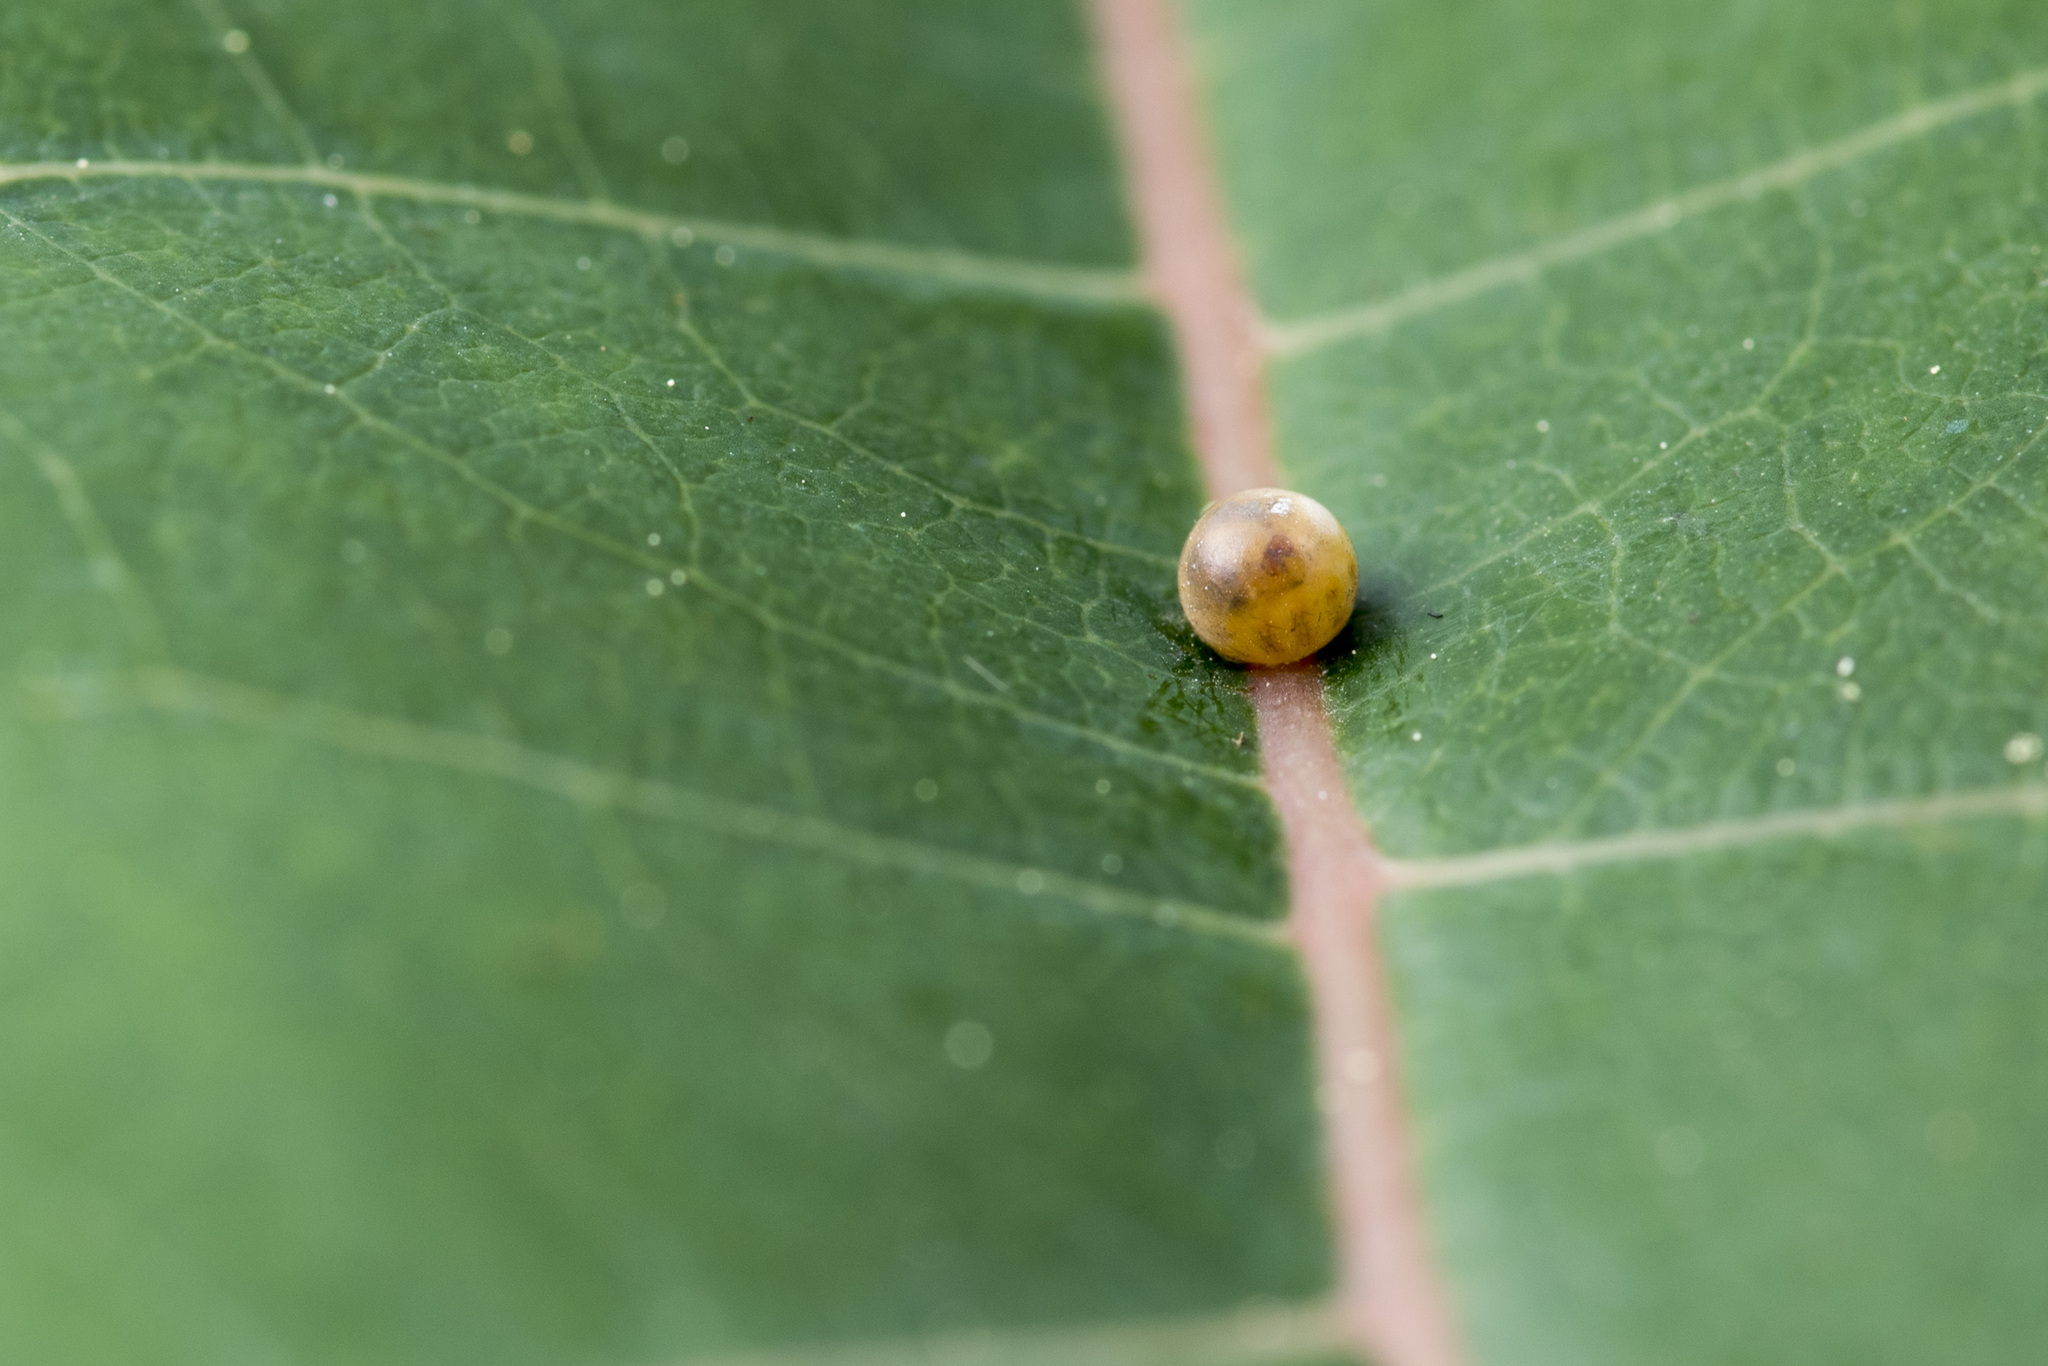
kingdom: Animalia
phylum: Arthropoda
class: Insecta
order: Lepidoptera
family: Papilionidae
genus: Chilasa
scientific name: Chilasa maraho
